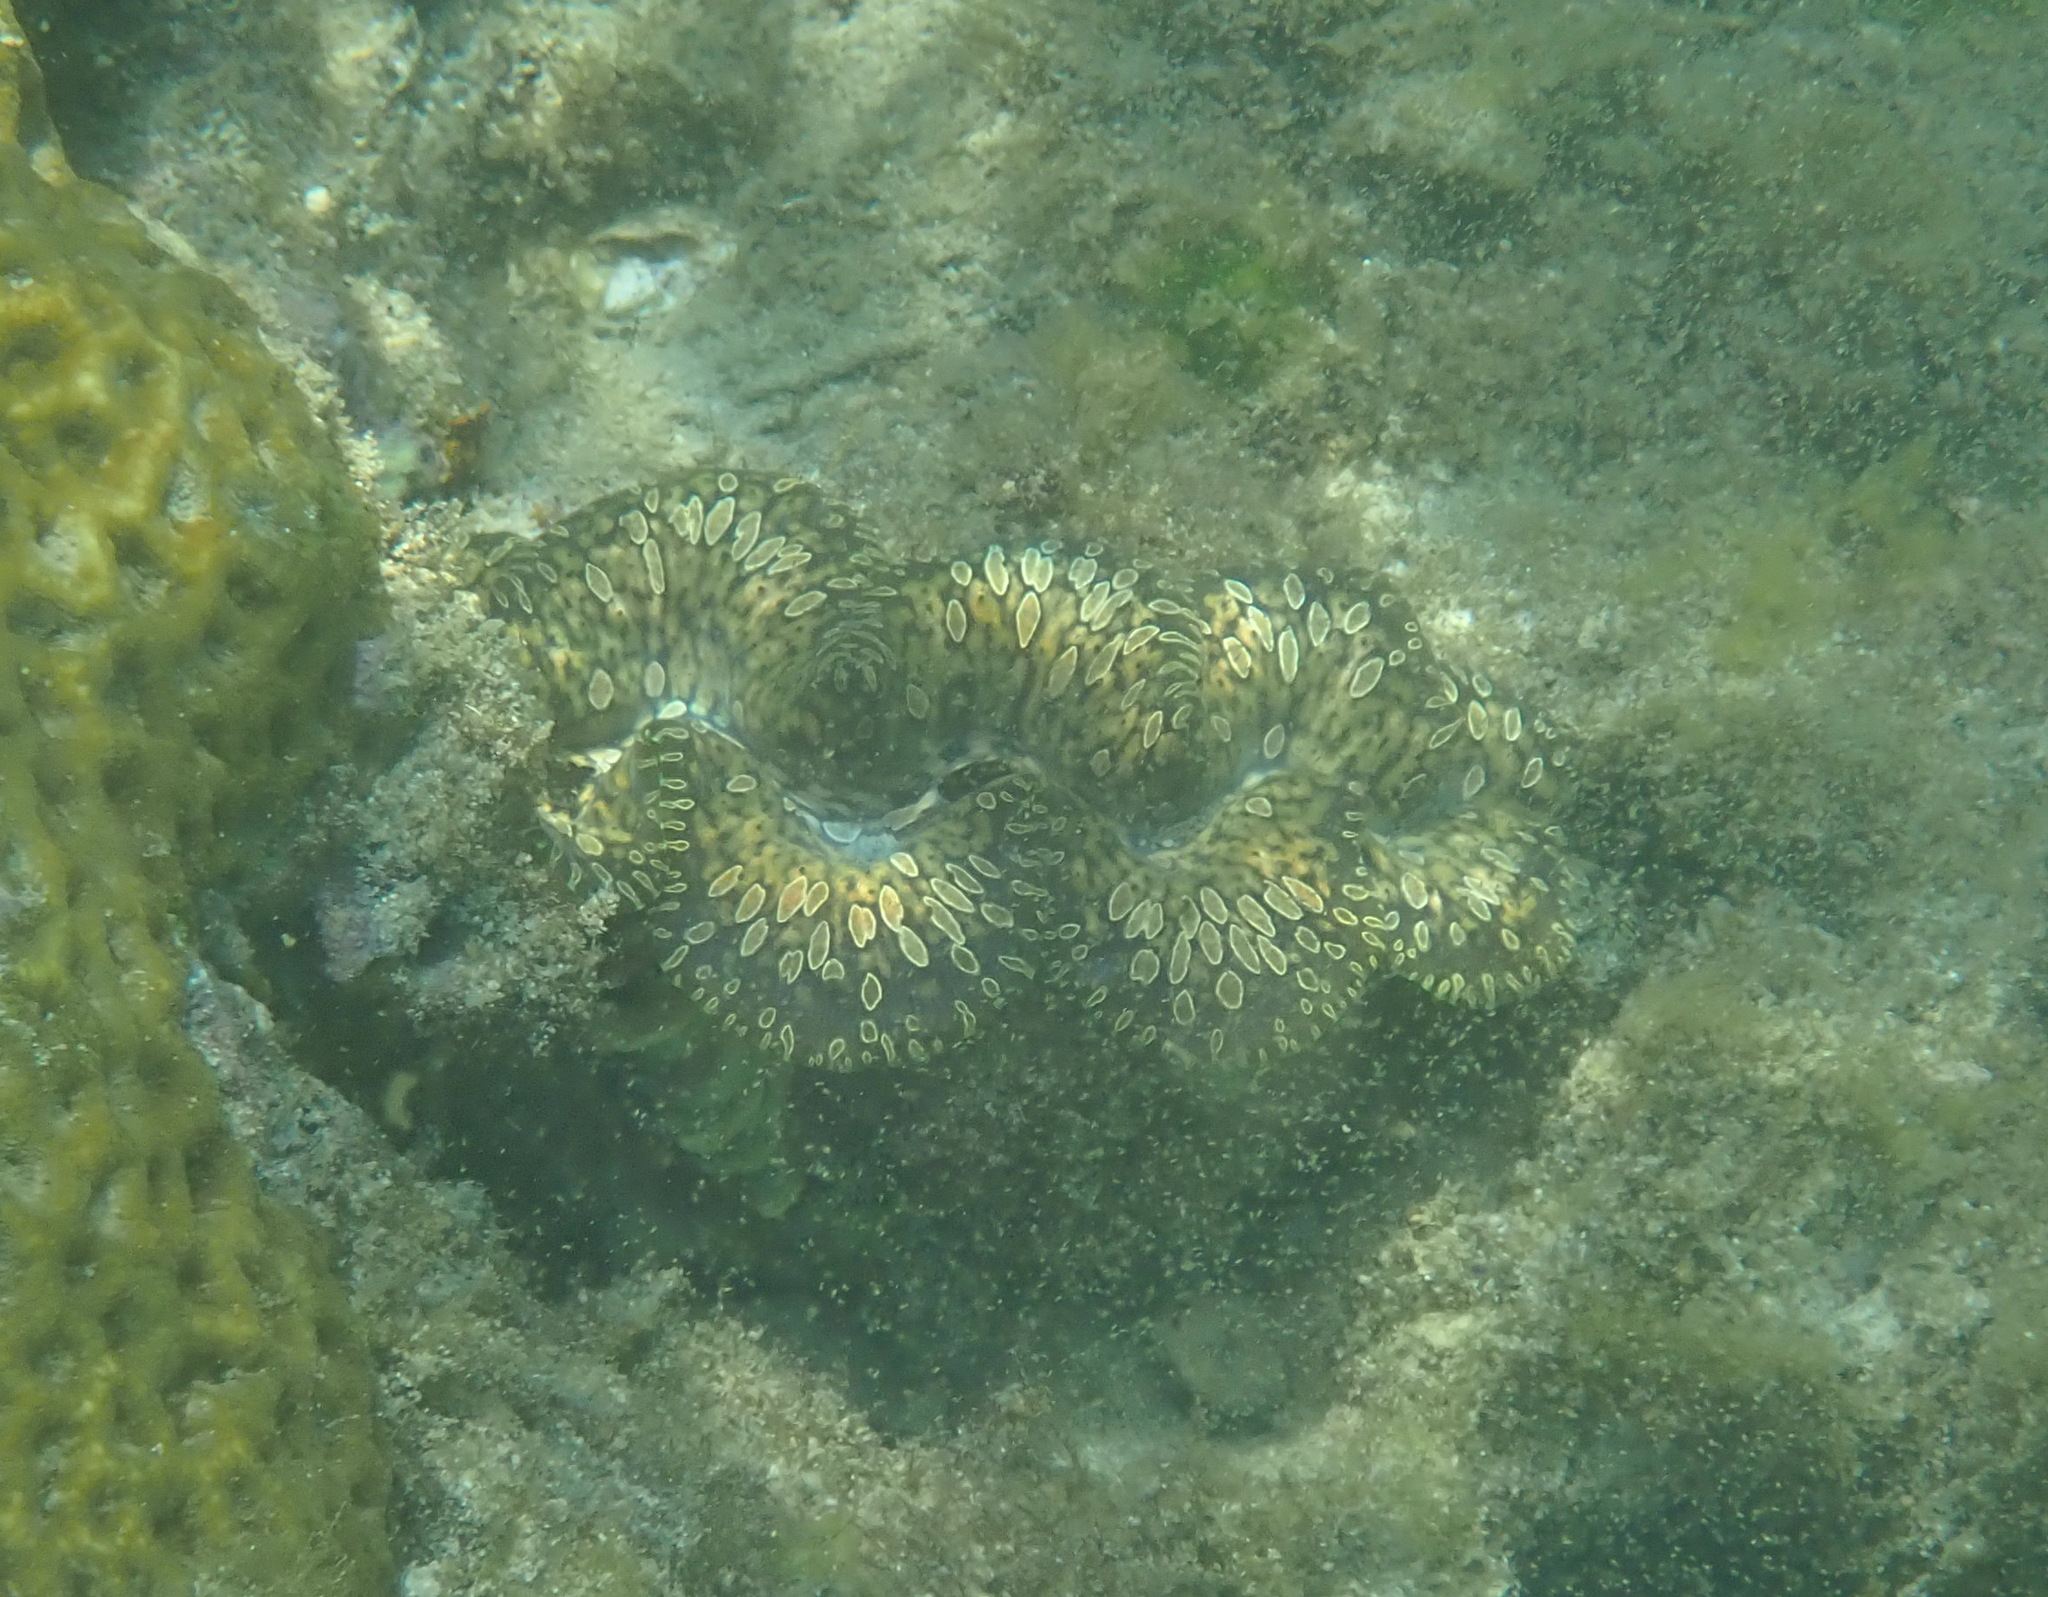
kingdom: Animalia
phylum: Mollusca
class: Bivalvia
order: Cardiida
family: Cardiidae
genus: Tridacna
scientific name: Tridacna noae
